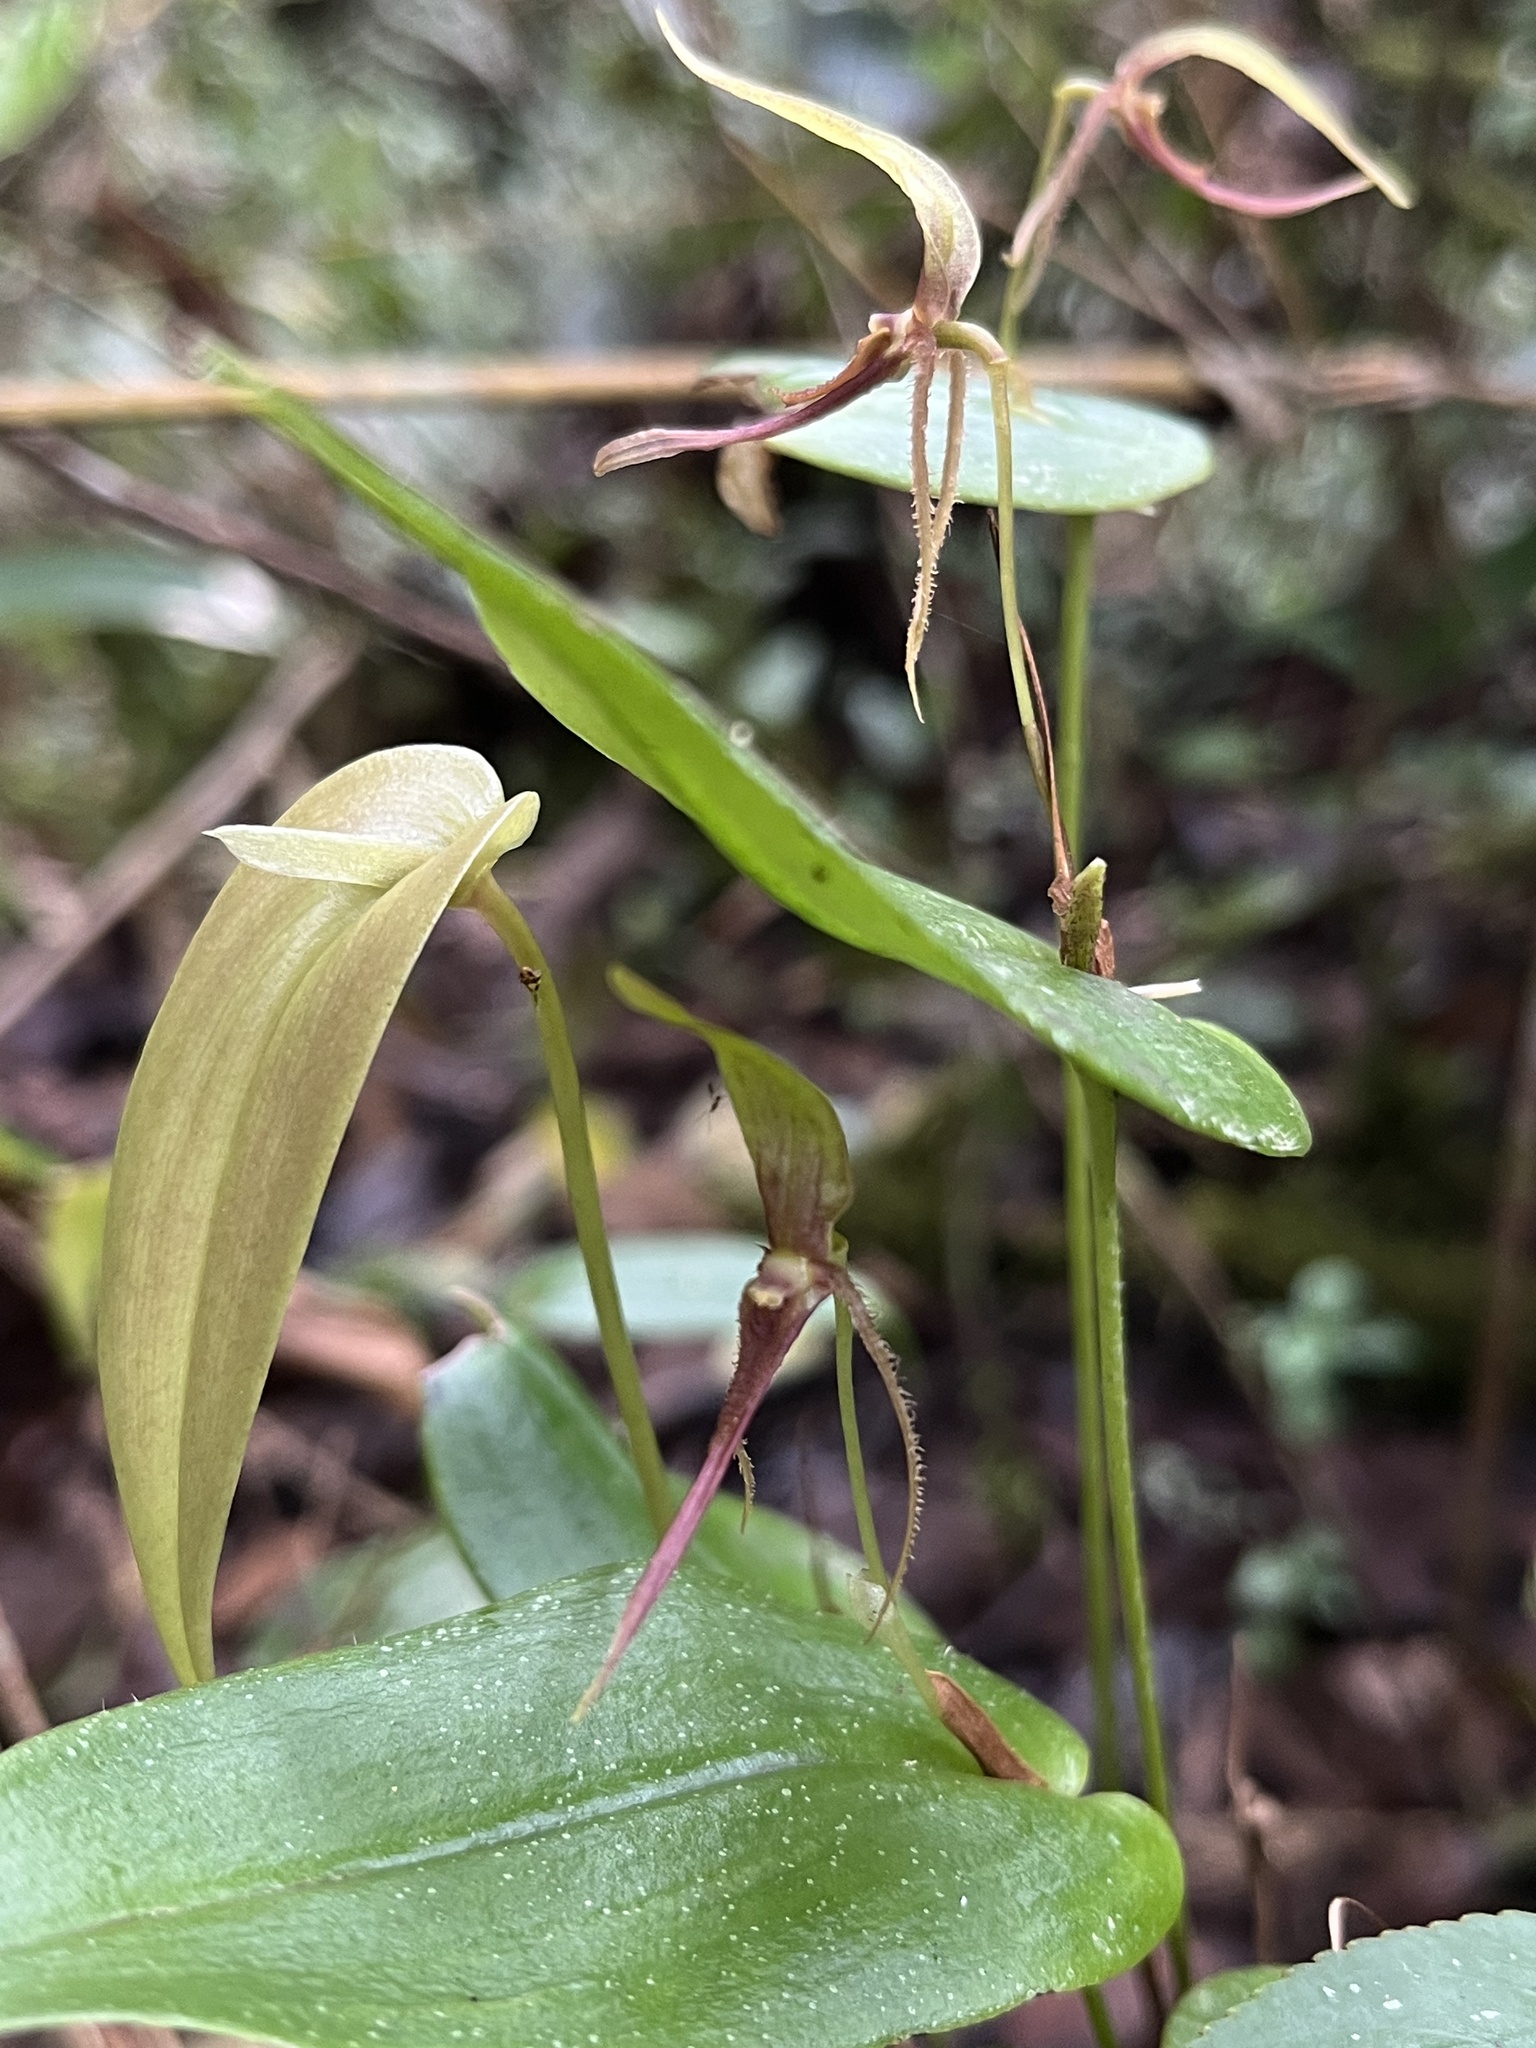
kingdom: Plantae
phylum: Tracheophyta
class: Liliopsida
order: Asparagales
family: Orchidaceae
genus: Pleurothallis
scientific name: Pleurothallis killipii
